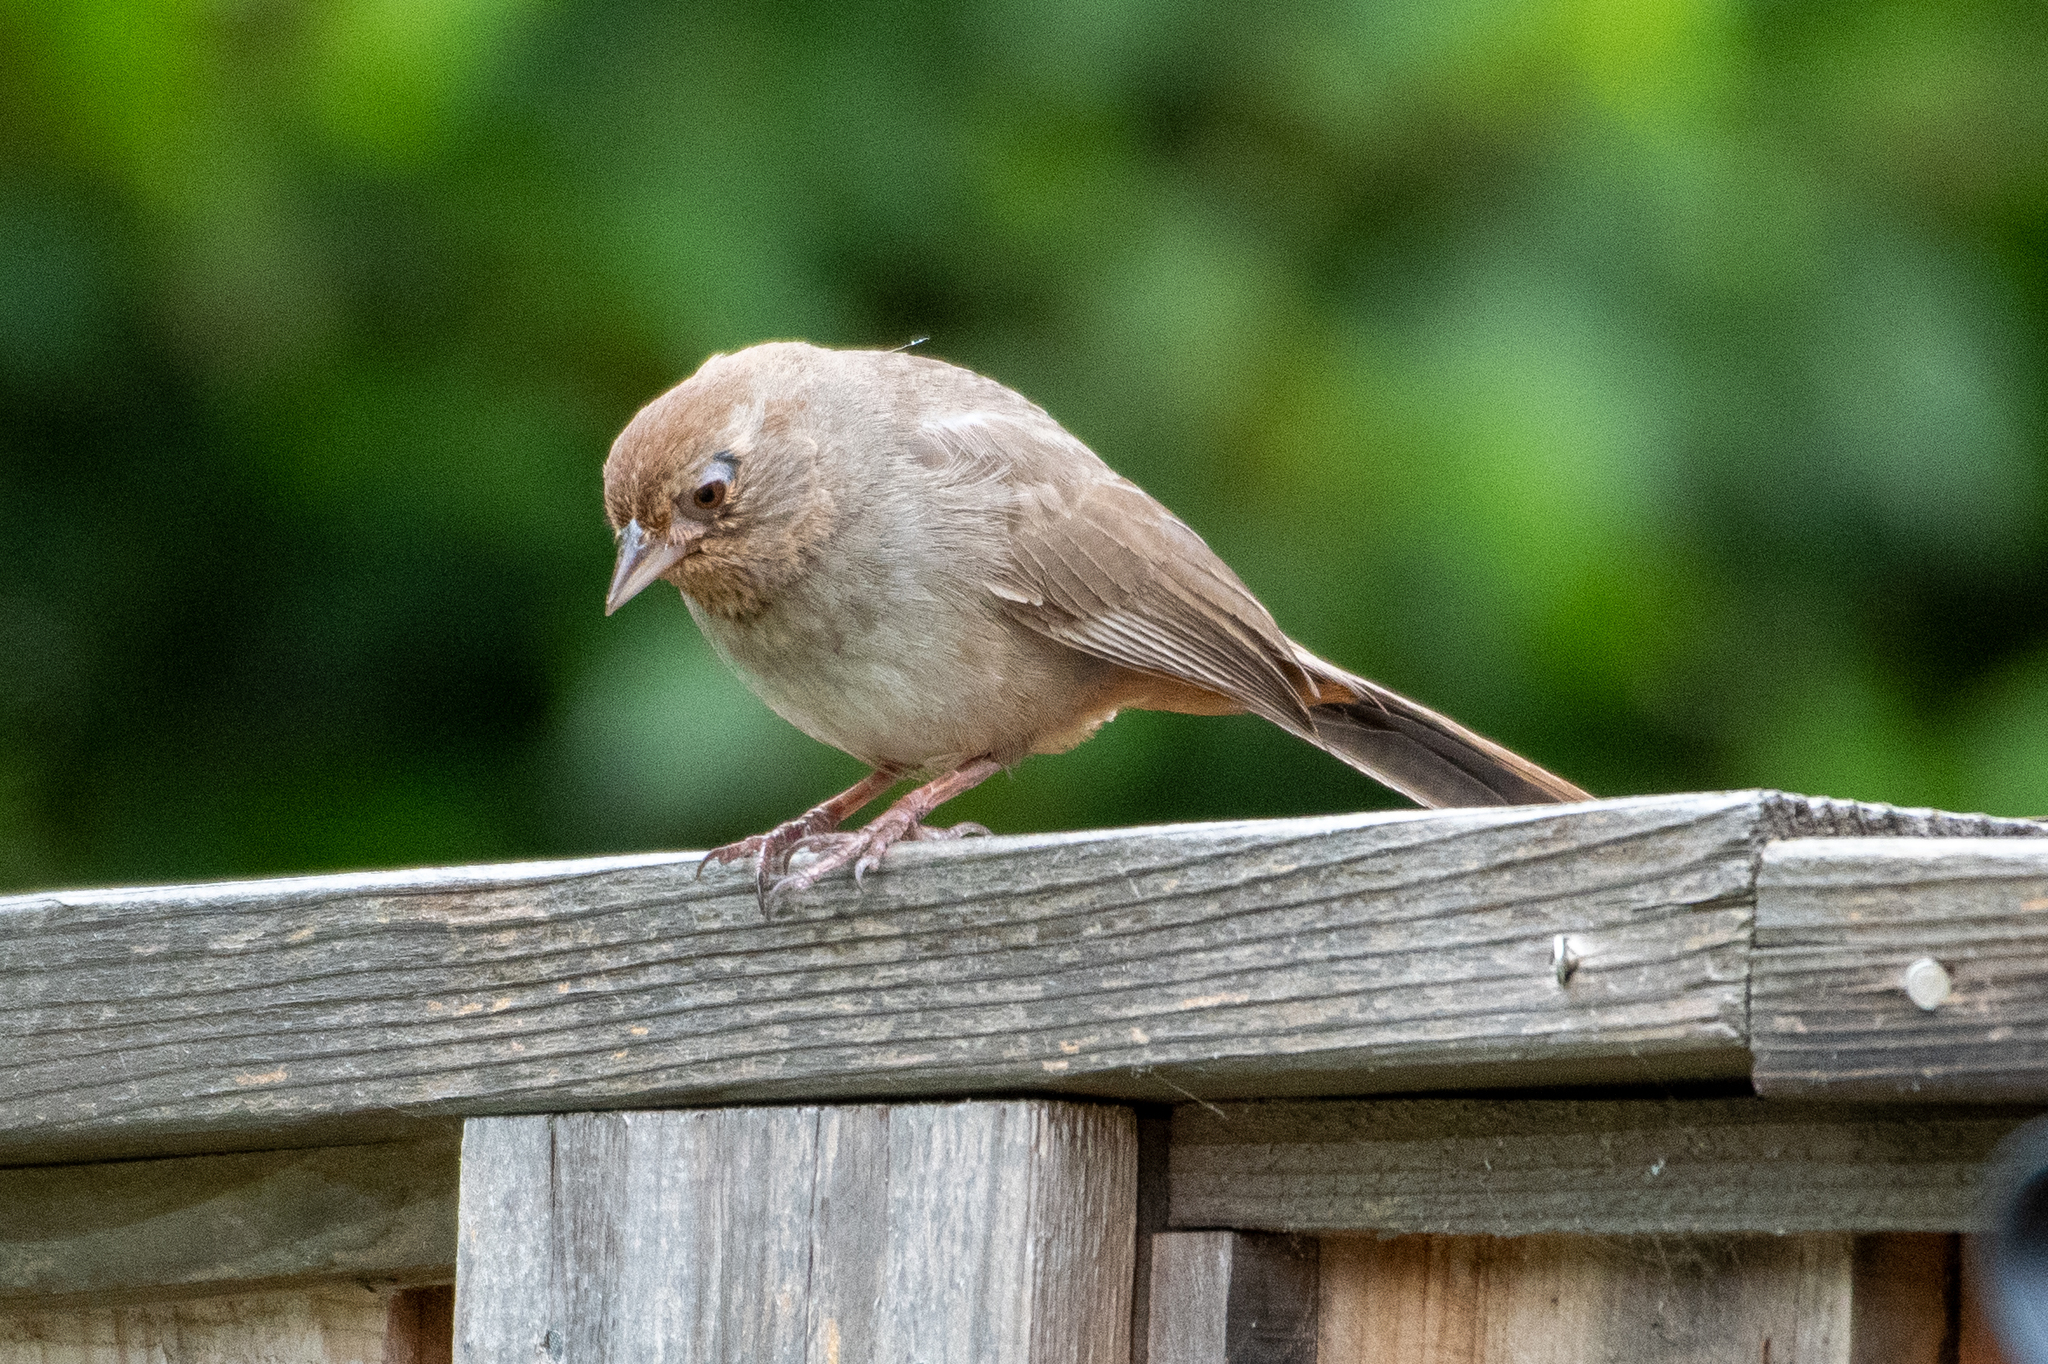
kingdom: Animalia
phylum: Chordata
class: Aves
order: Passeriformes
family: Passerellidae
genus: Melozone
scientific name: Melozone crissalis
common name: California towhee
